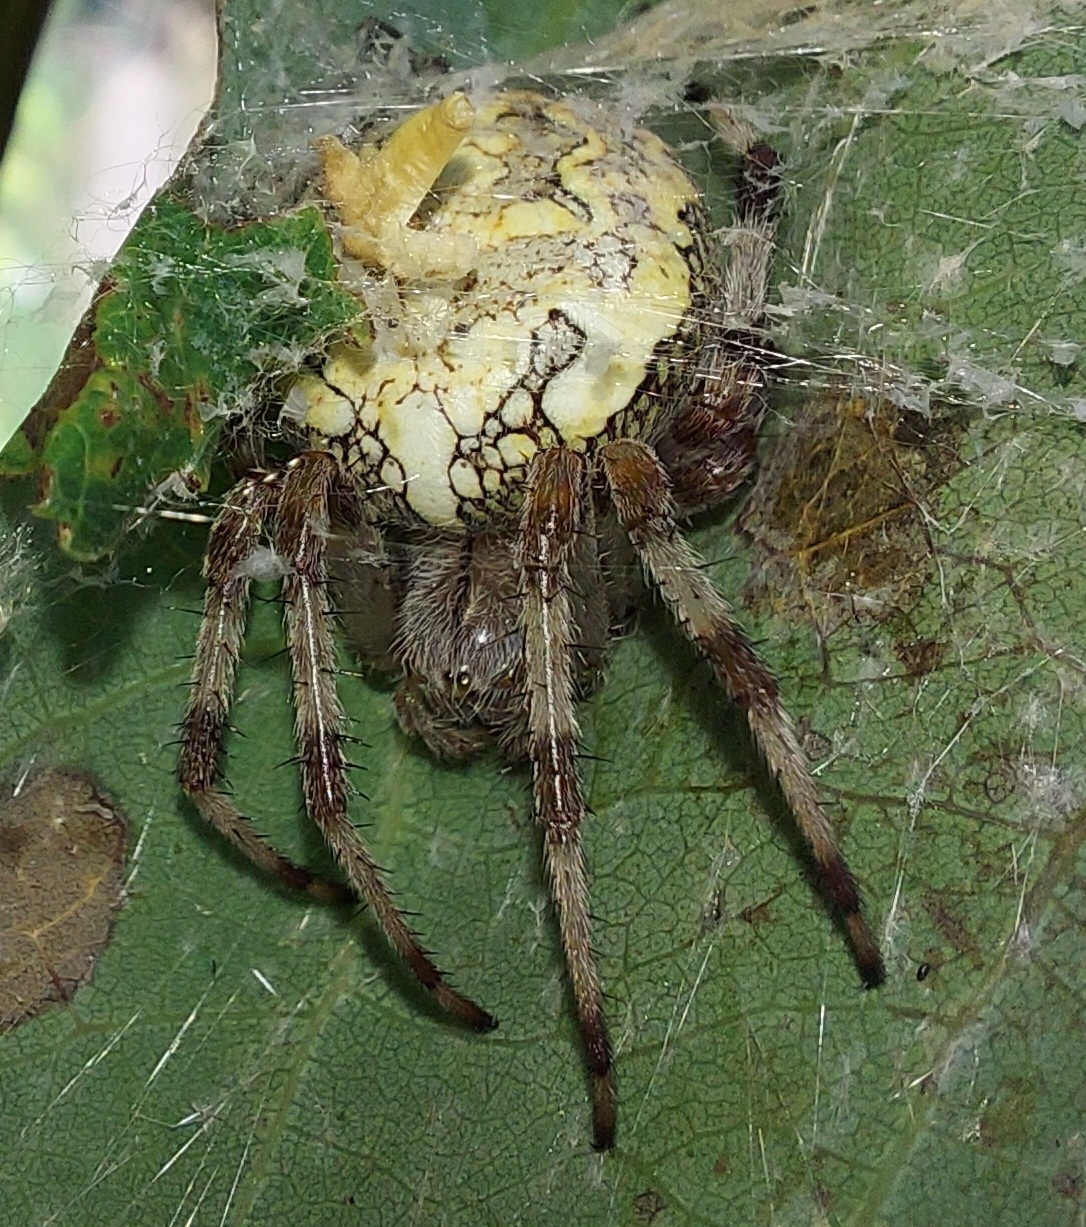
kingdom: Animalia
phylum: Arthropoda
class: Arachnida
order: Araneae
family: Araneidae
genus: Araneus
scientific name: Araneus marmoreus
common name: Marbled orbweaver
